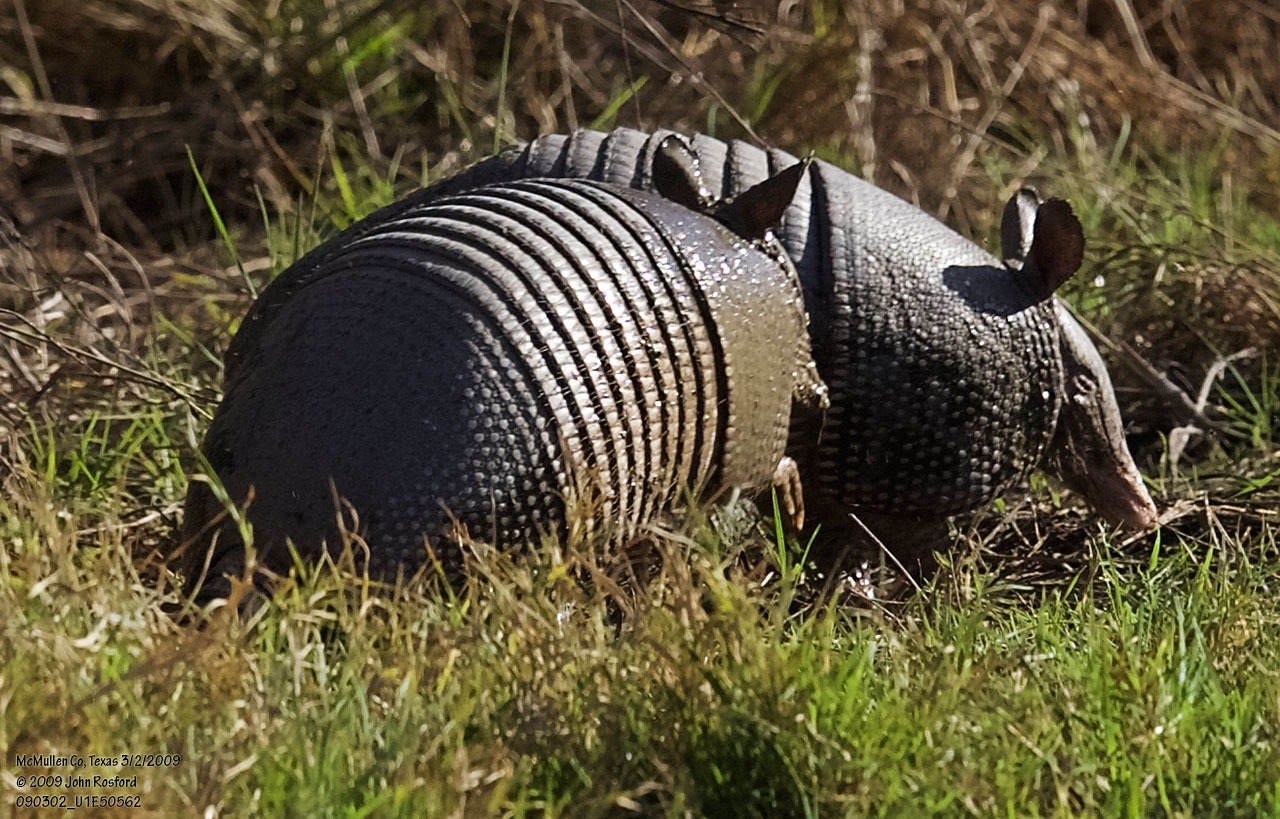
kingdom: Animalia
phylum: Chordata
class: Mammalia
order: Cingulata
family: Dasypodidae
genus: Dasypus
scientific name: Dasypus novemcinctus
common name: Nine-banded armadillo
